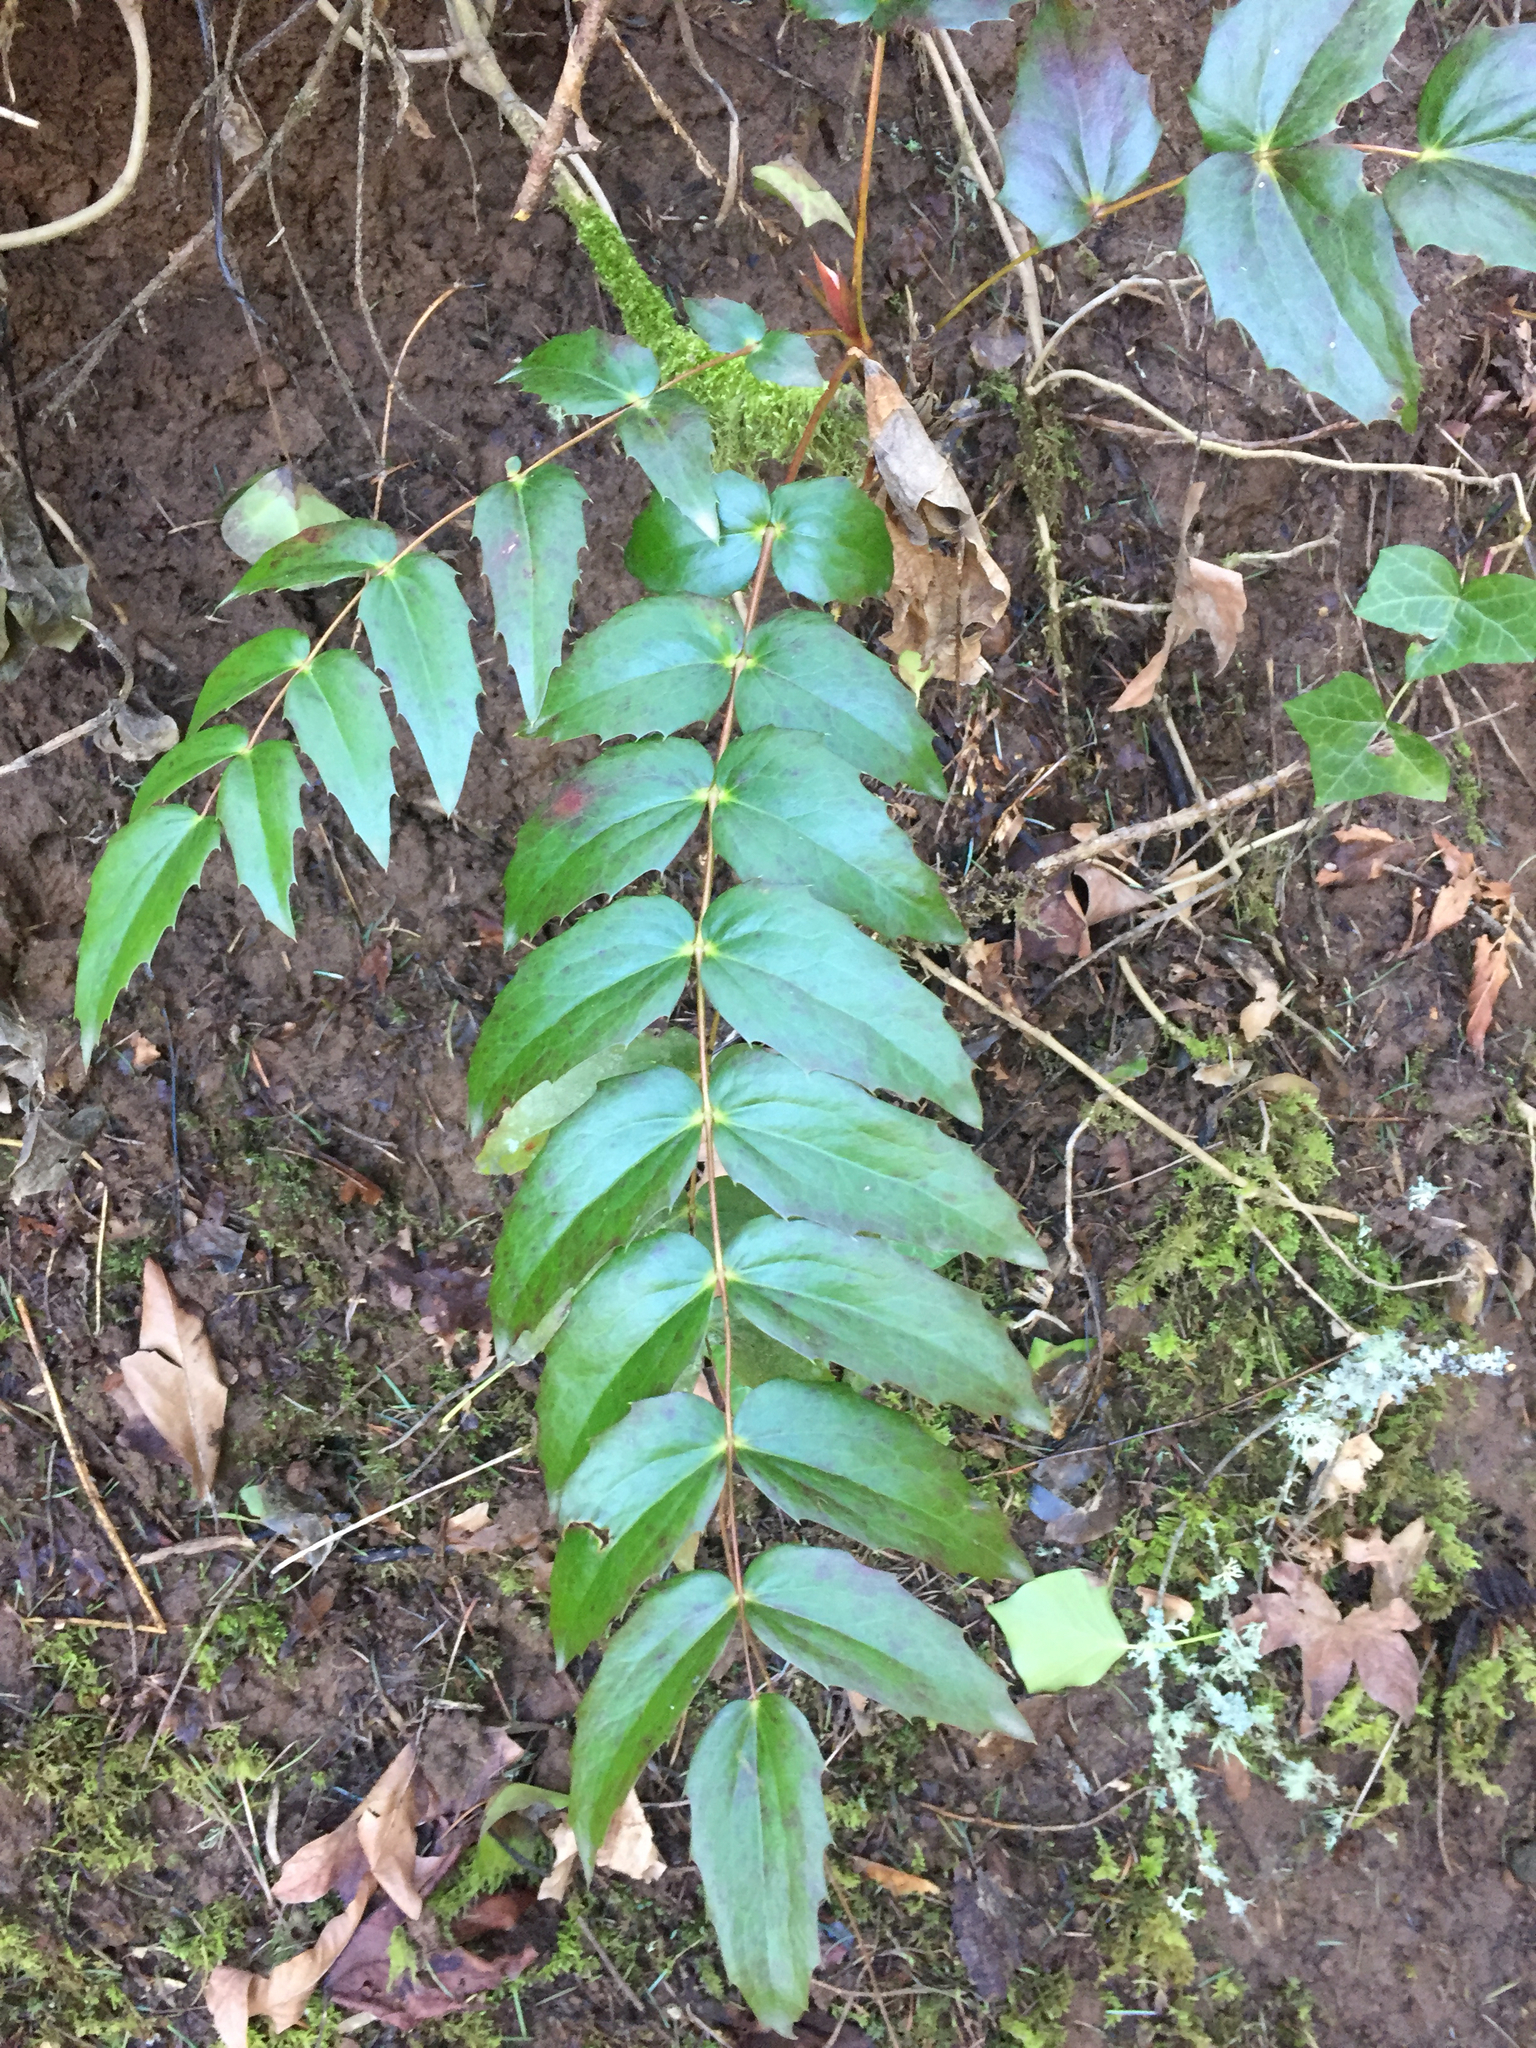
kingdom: Plantae
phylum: Tracheophyta
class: Magnoliopsida
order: Ranunculales
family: Berberidaceae
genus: Mahonia
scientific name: Mahonia nervosa
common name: Cascade oregon-grape
